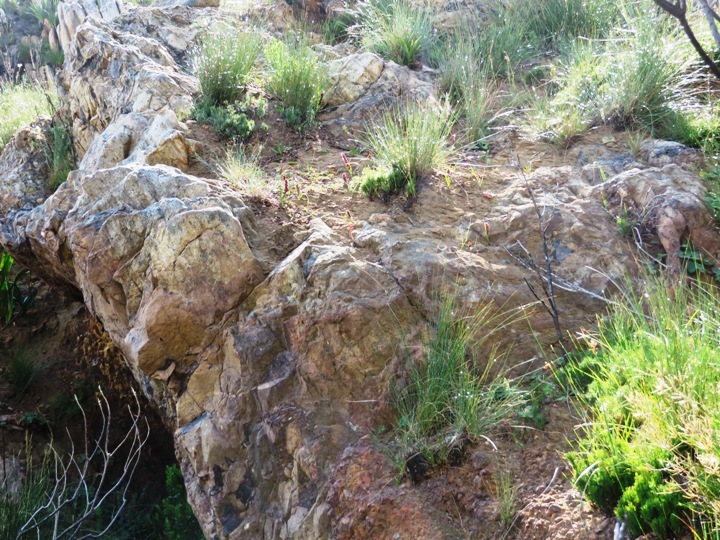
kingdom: Plantae
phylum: Tracheophyta
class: Liliopsida
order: Liliales
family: Colchicaceae
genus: Wurmbea
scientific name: Wurmbea recurva
